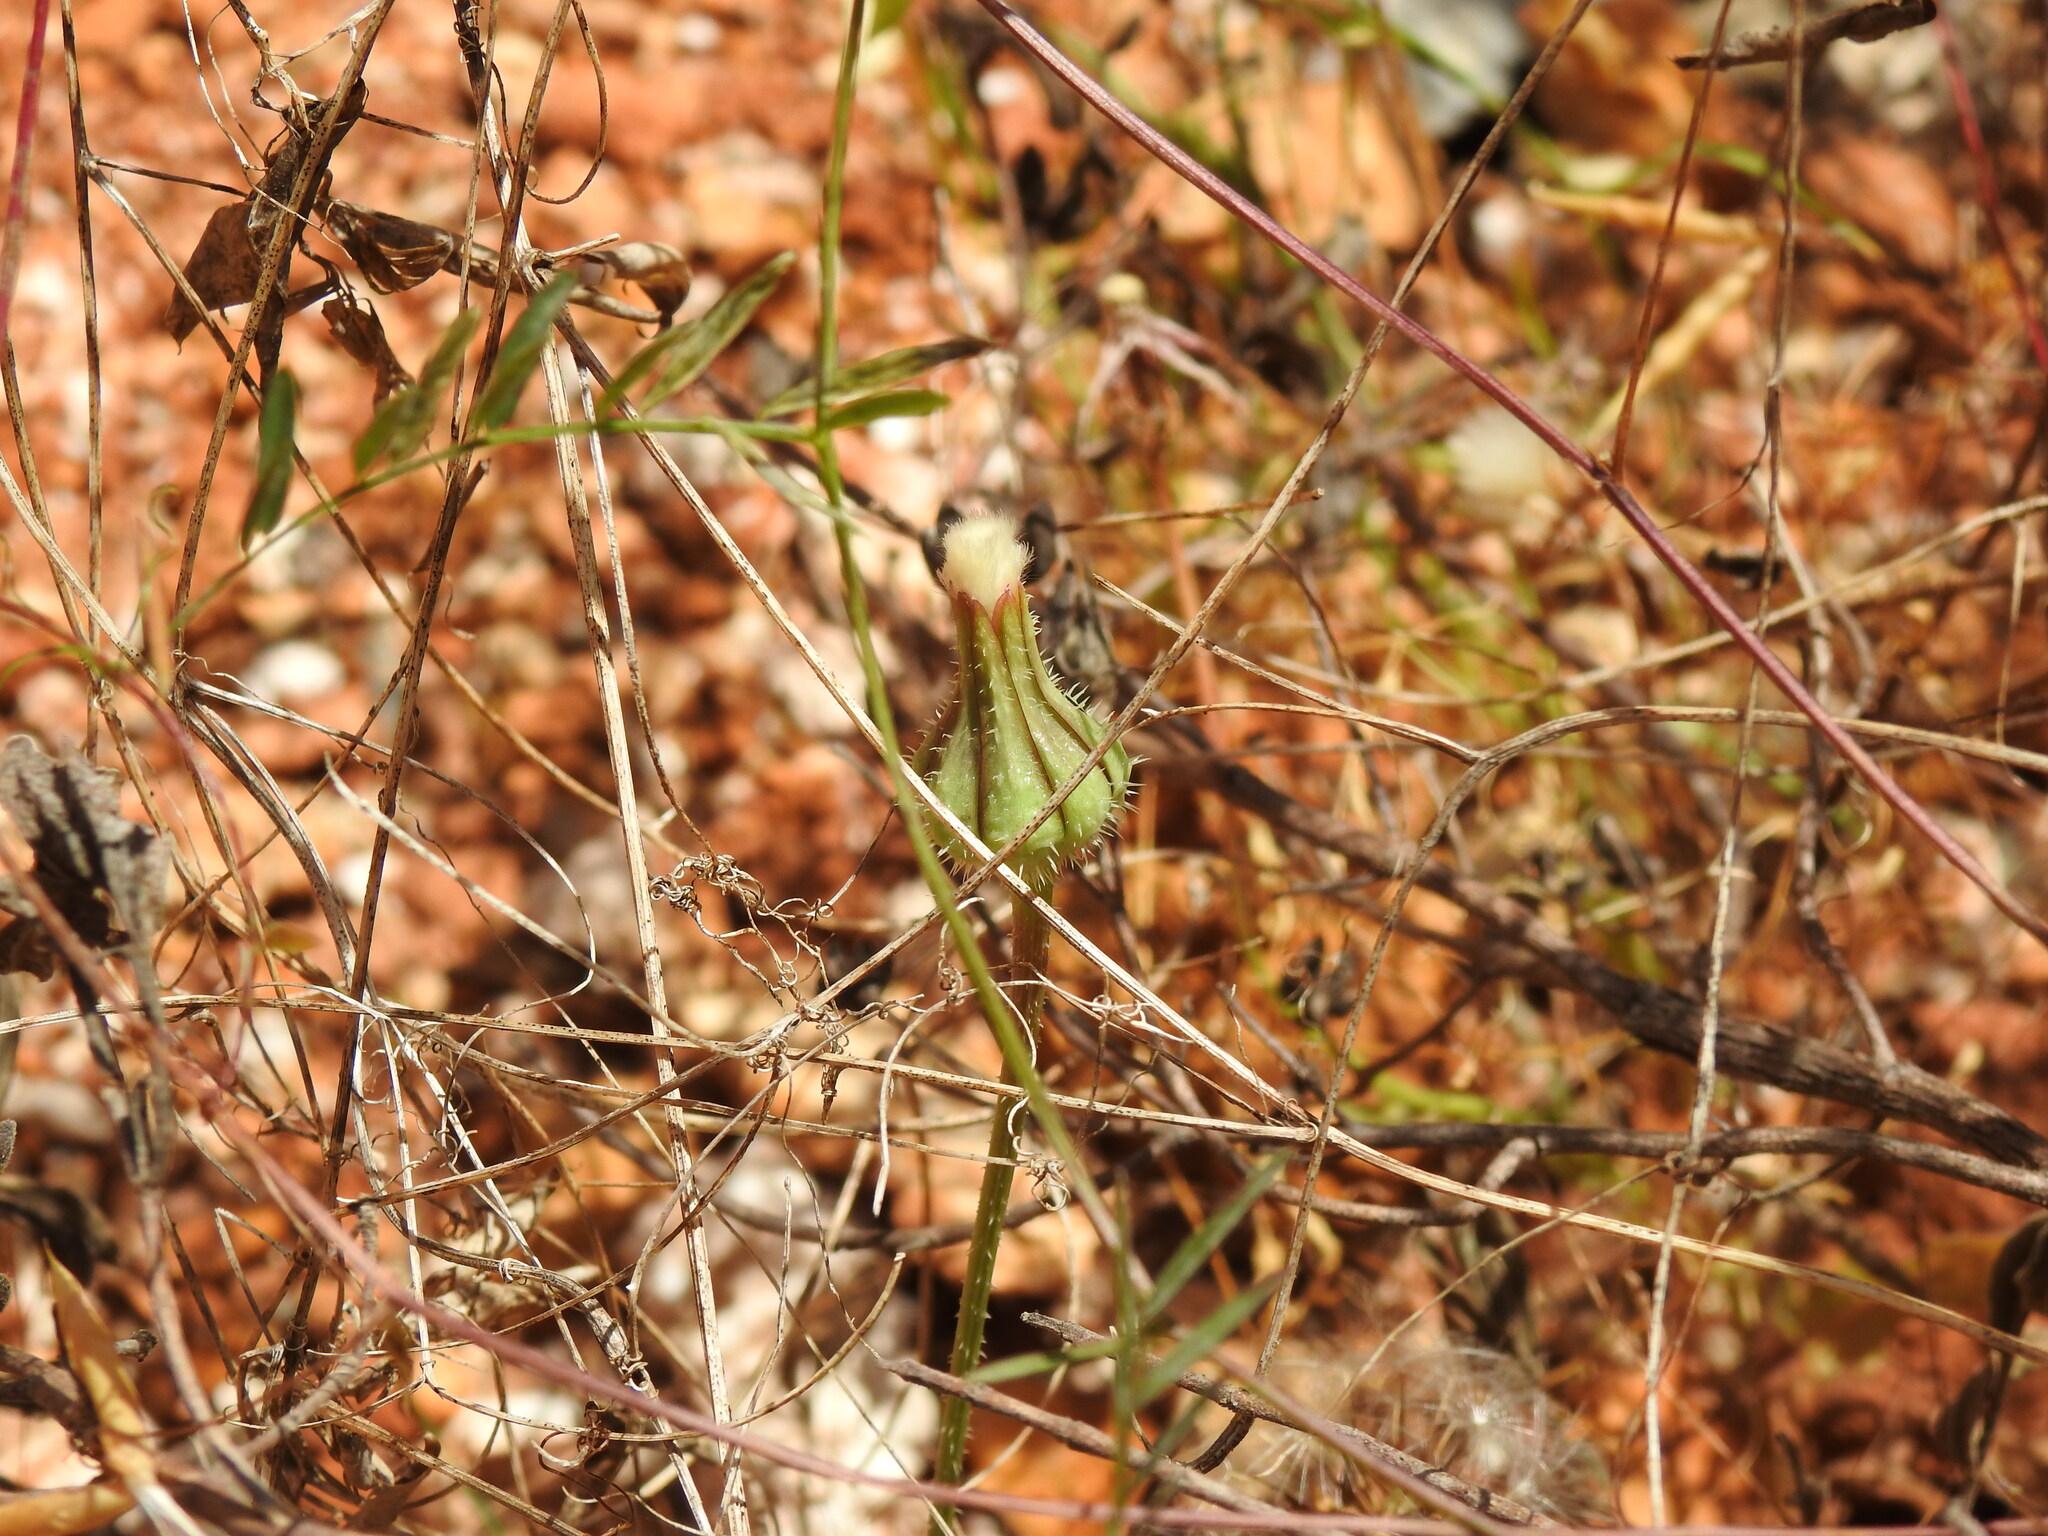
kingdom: Plantae
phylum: Tracheophyta
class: Magnoliopsida
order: Asterales
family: Asteraceae
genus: Urospermum
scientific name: Urospermum picroides
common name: False hawkbit
